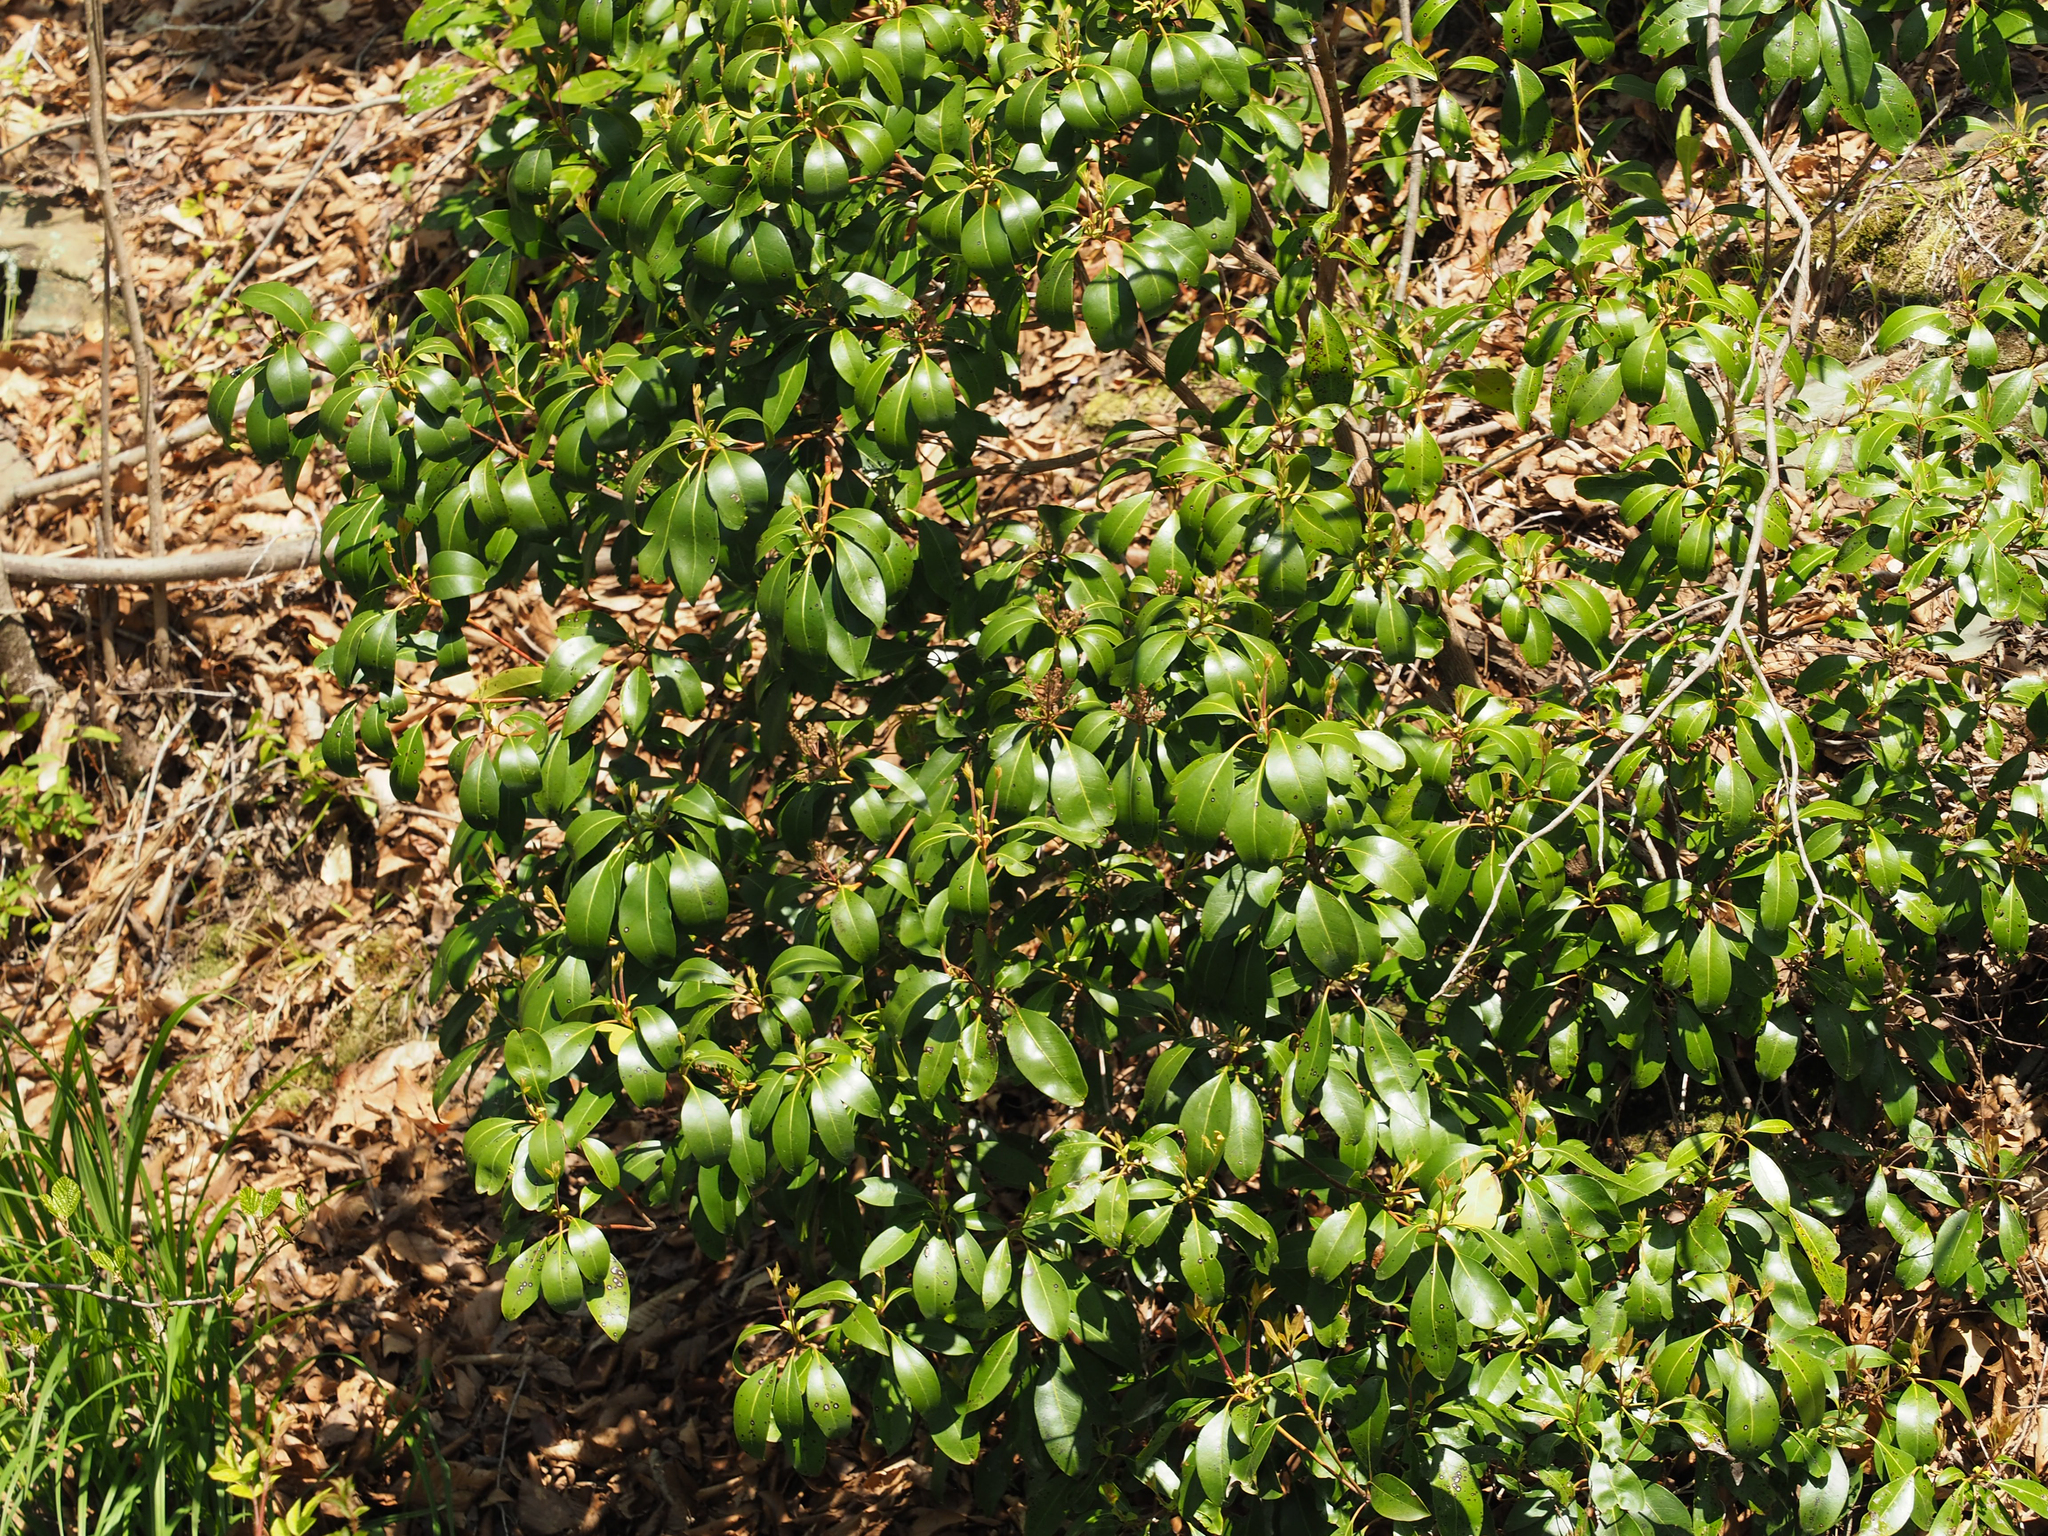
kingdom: Plantae
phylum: Tracheophyta
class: Magnoliopsida
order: Ericales
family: Ericaceae
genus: Kalmia
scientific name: Kalmia latifolia
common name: Mountain-laurel
